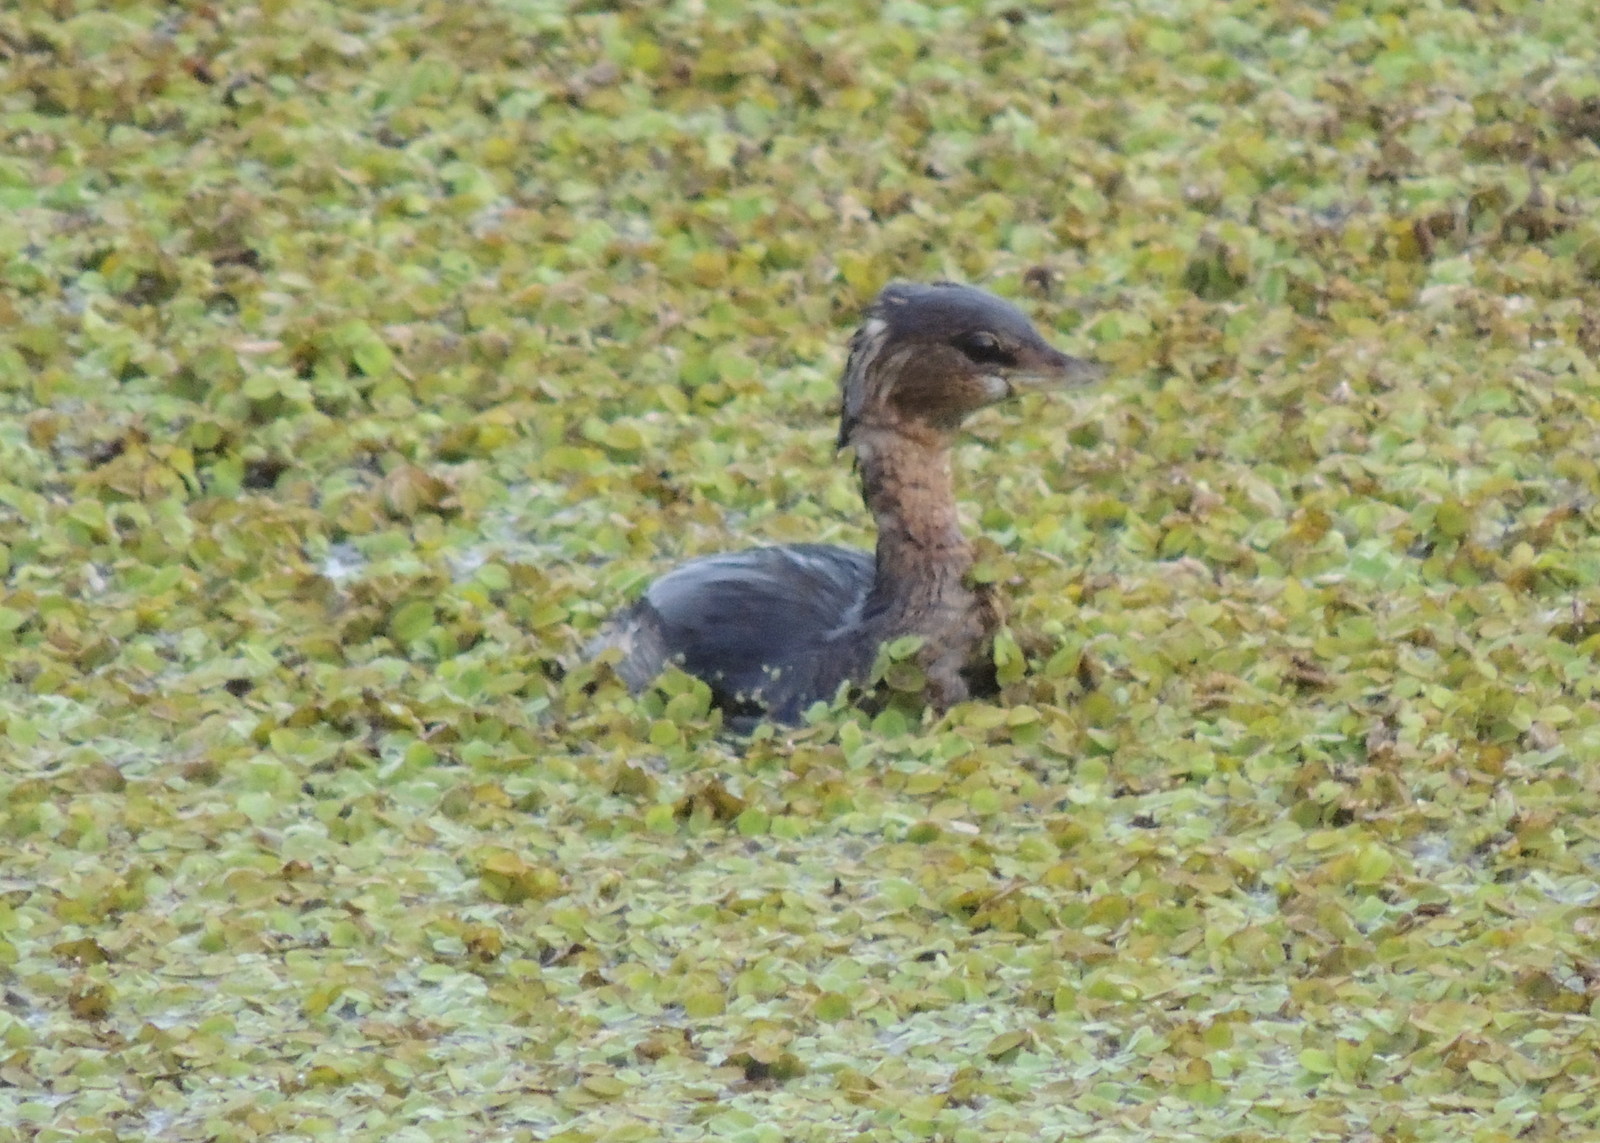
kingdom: Animalia
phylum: Chordata
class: Aves
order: Podicipediformes
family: Podicipedidae
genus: Podilymbus
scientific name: Podilymbus podiceps
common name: Pied-billed grebe
